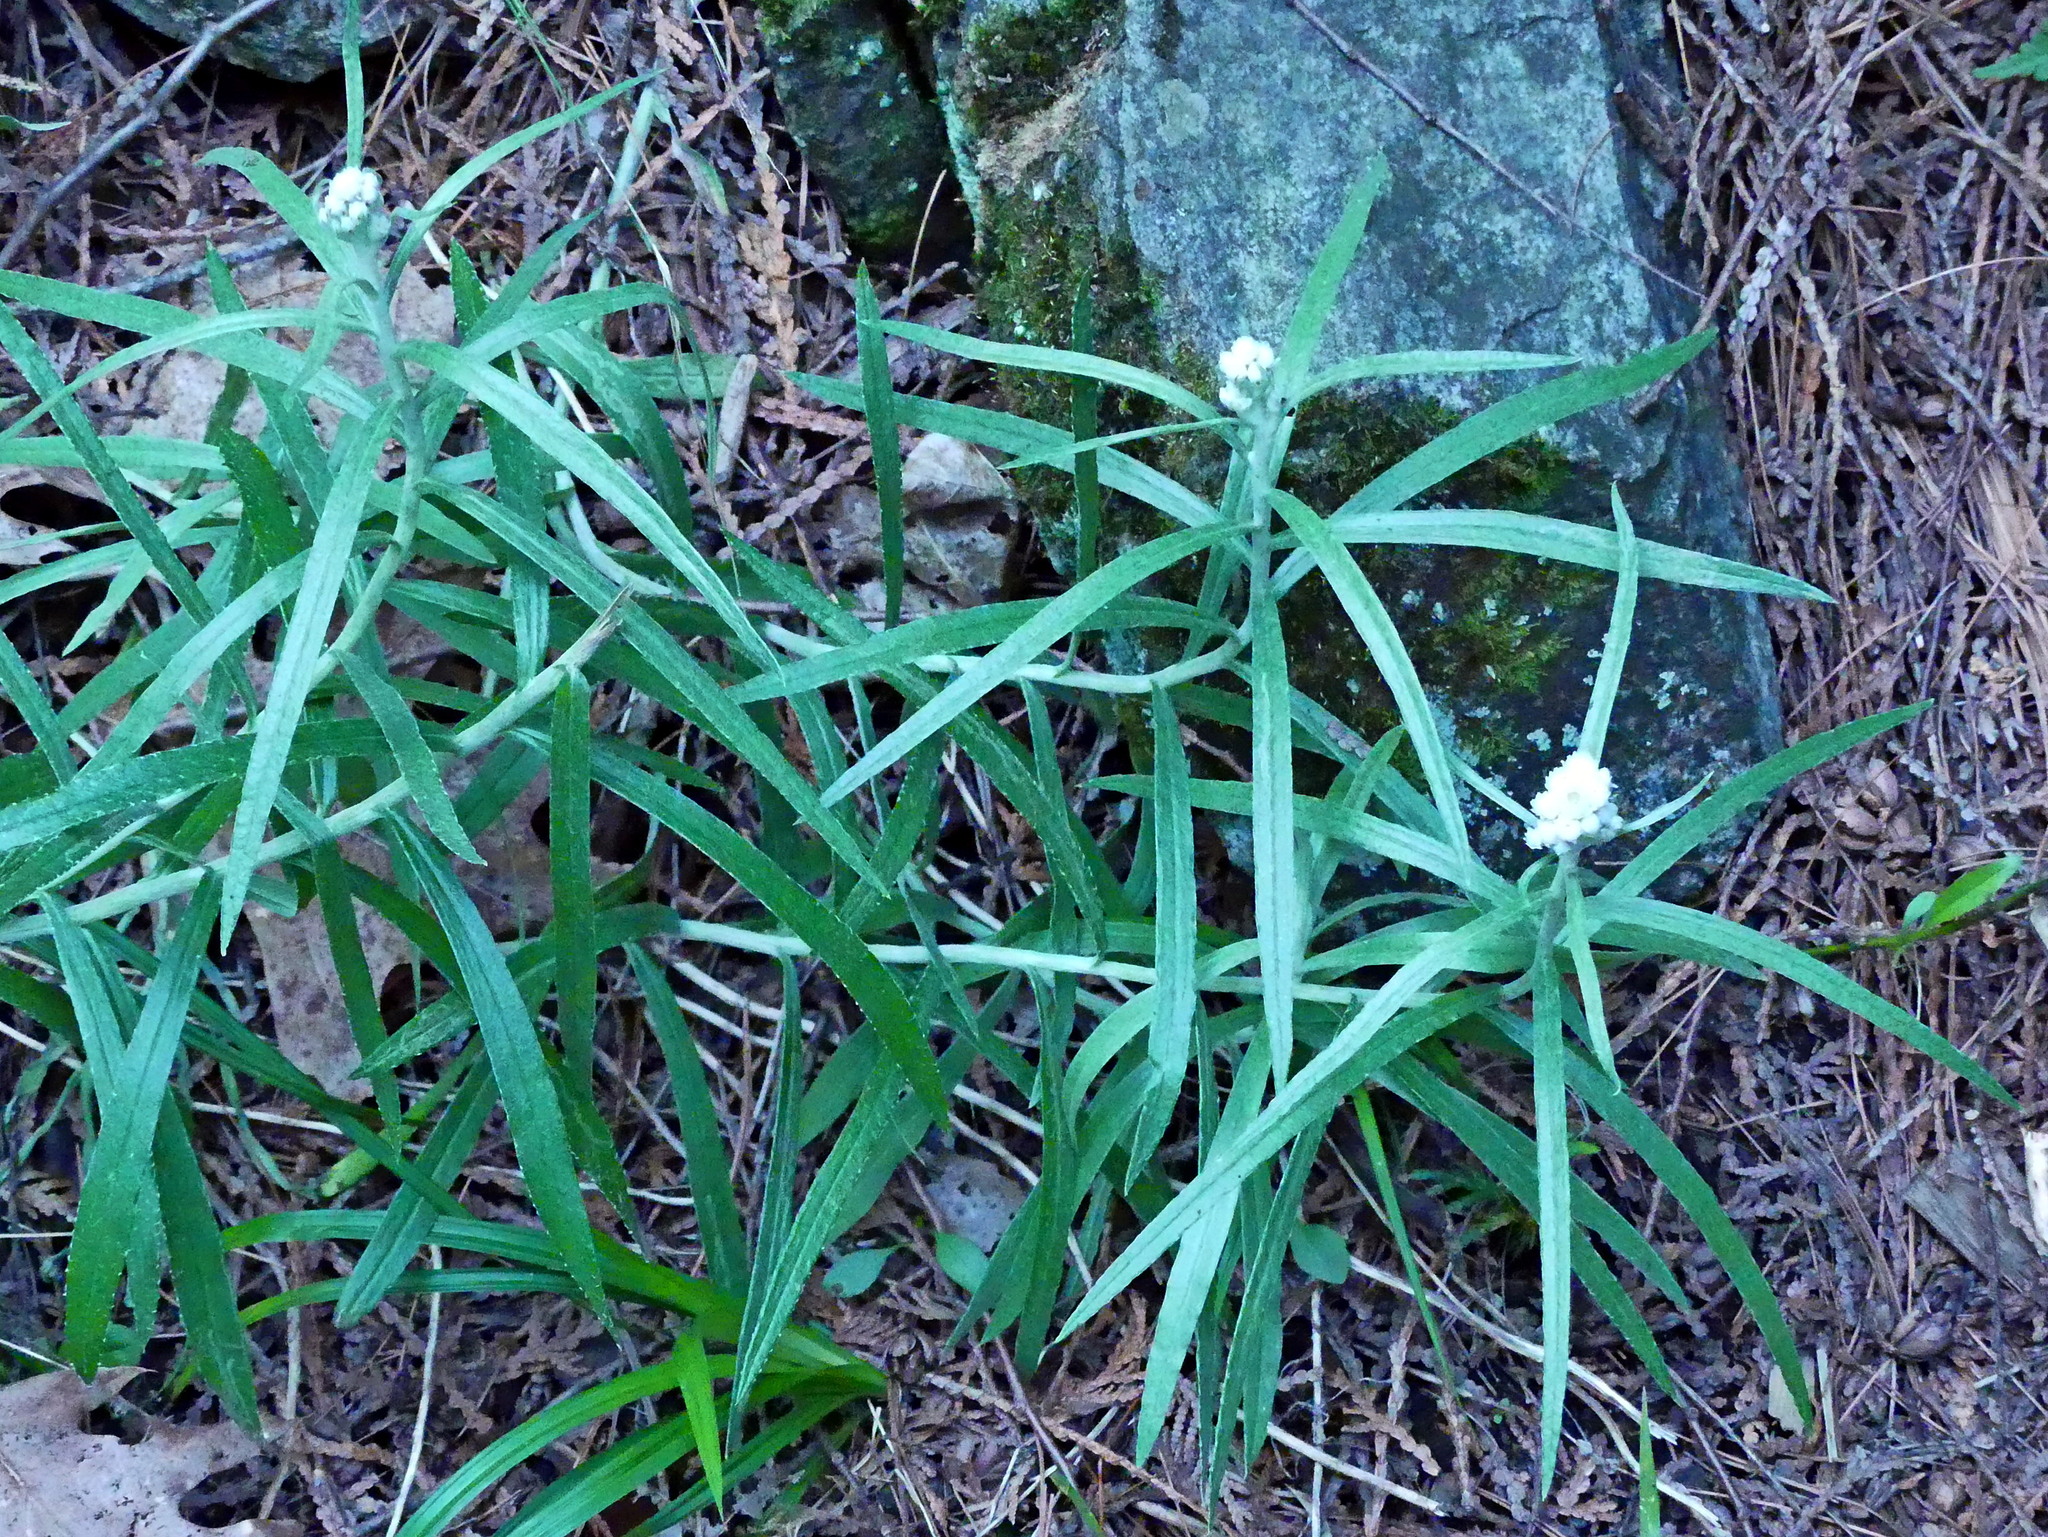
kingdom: Plantae
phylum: Tracheophyta
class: Magnoliopsida
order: Asterales
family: Asteraceae
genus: Anaphalis
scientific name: Anaphalis margaritacea
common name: Pearly everlasting
